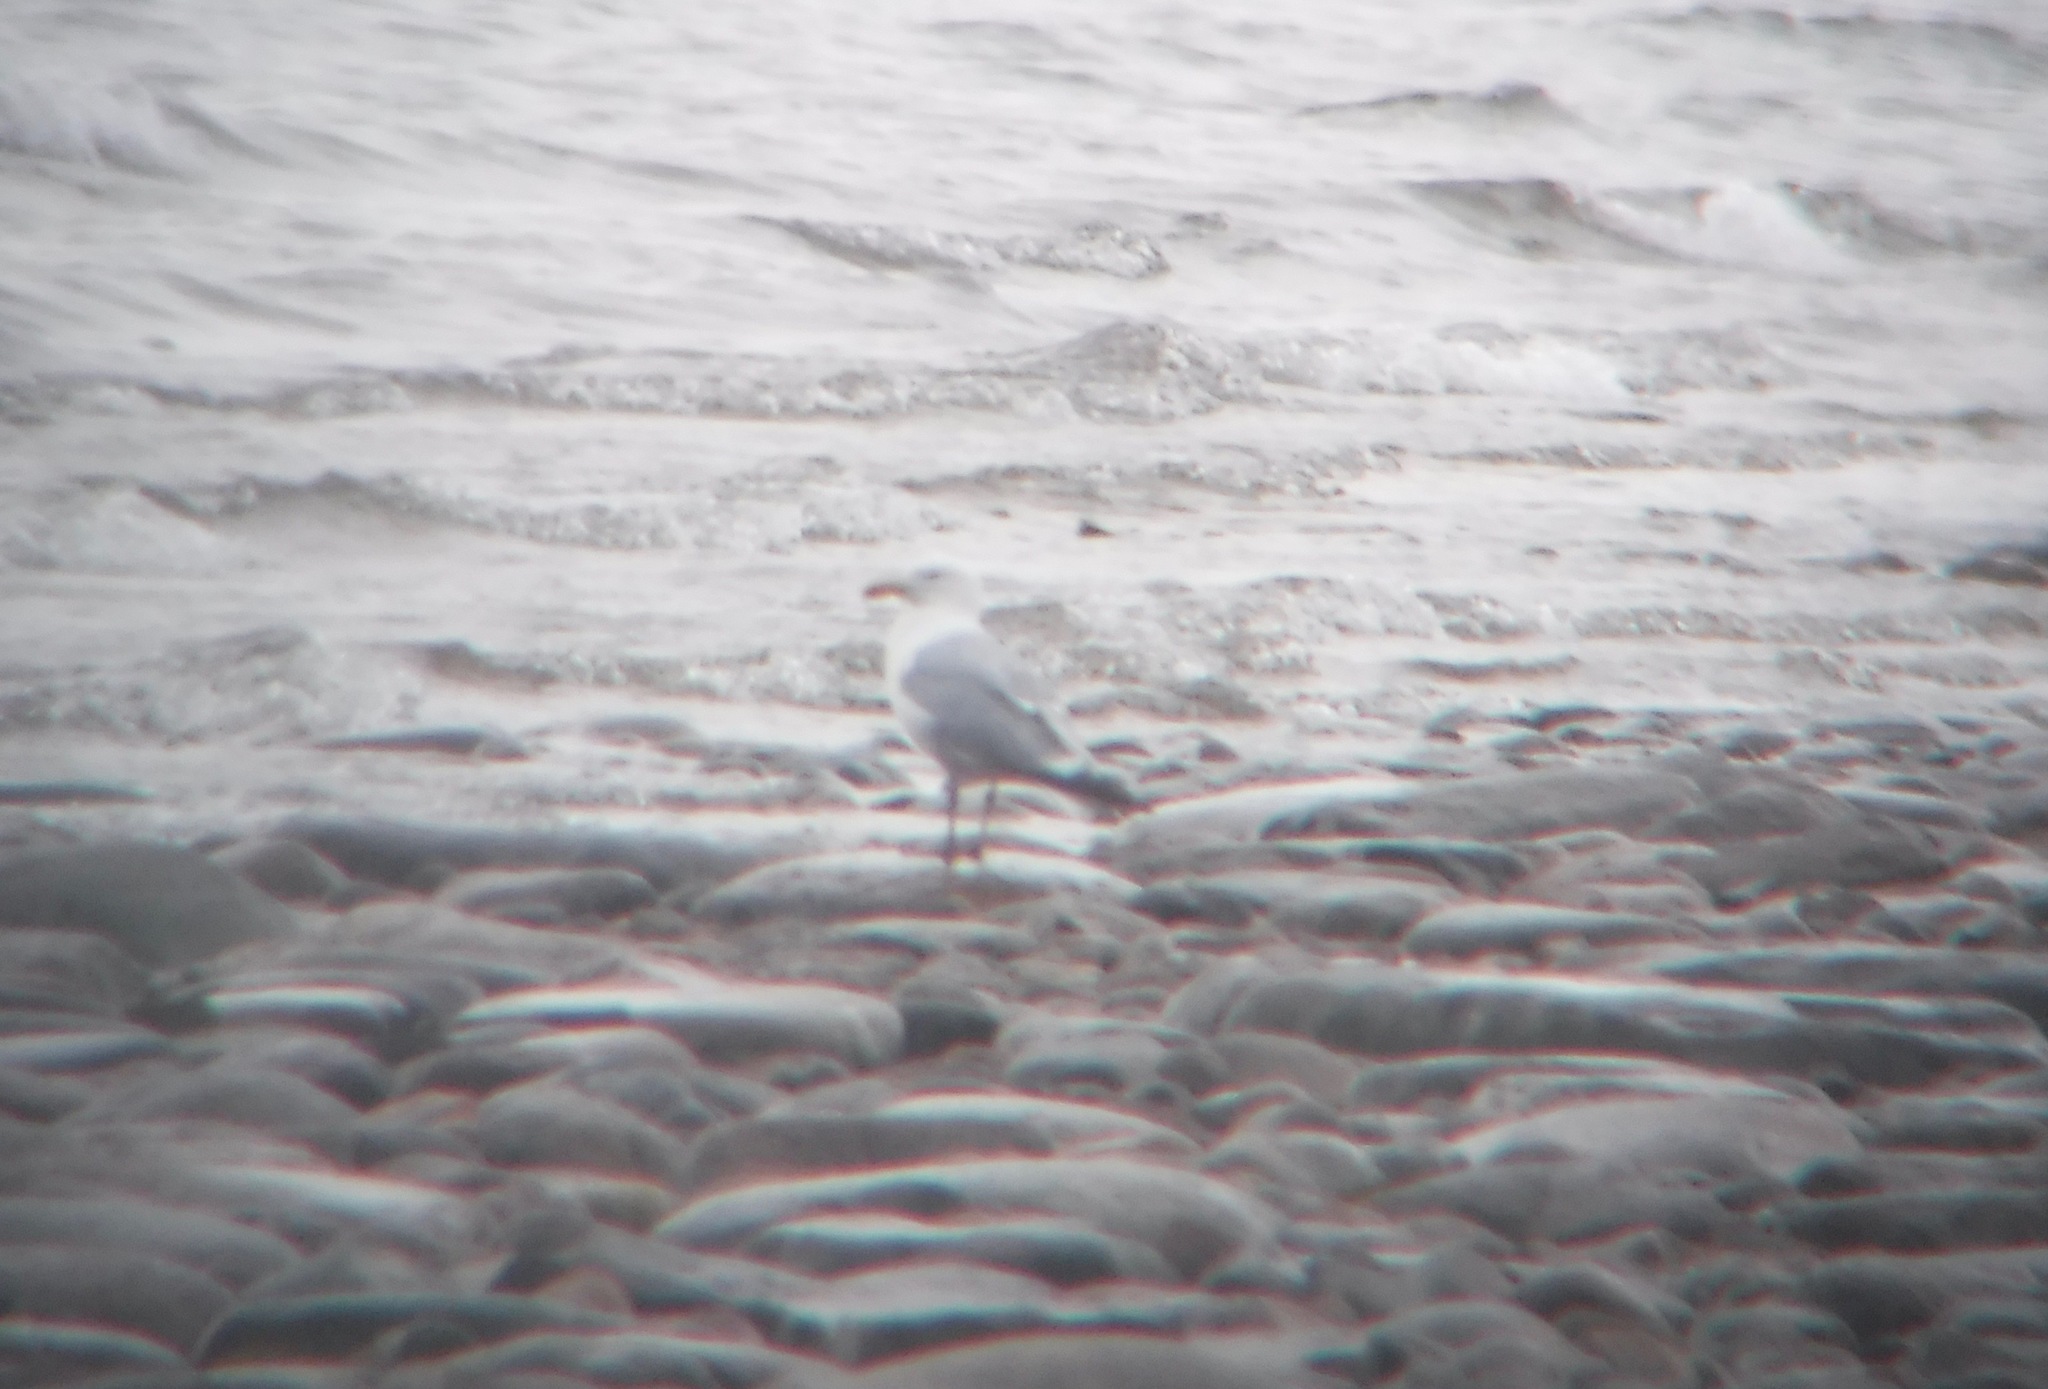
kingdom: Animalia
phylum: Chordata
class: Aves
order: Charadriiformes
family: Laridae
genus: Larus
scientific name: Larus argentatus
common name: Herring gull
